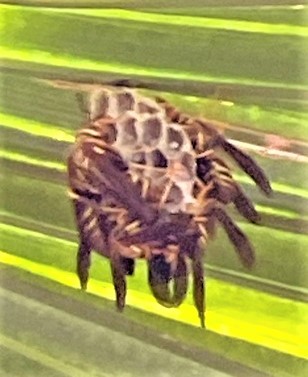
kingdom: Animalia
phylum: Arthropoda
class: Insecta
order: Hymenoptera
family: Eumenidae
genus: Polistes
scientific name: Polistes instabilis
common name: Unstable paper wasp
